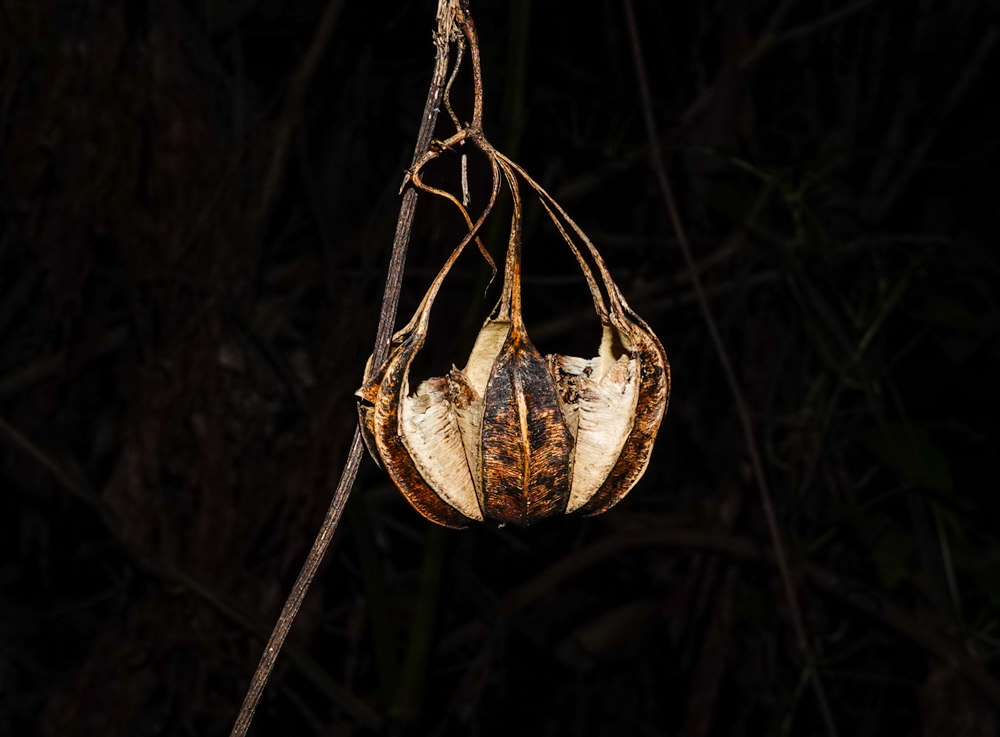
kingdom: Plantae
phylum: Tracheophyta
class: Magnoliopsida
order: Piperales
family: Aristolochiaceae
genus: Aristolochia
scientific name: Aristolochia indica
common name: Indian birthwort
